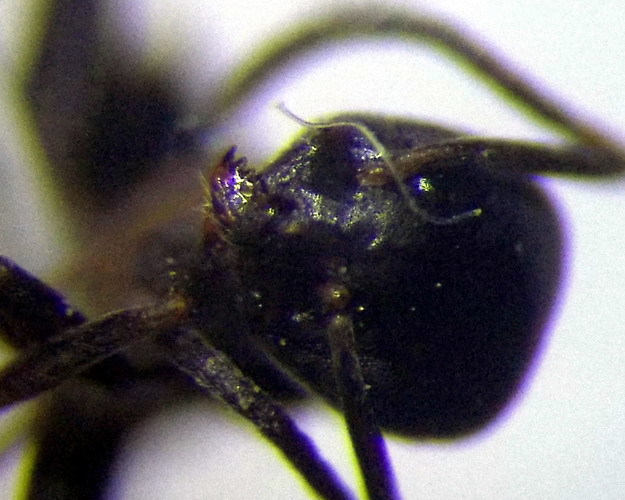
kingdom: Animalia
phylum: Arthropoda
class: Insecta
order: Hymenoptera
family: Formicidae
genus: Tapinoma
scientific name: Tapinoma erraticum
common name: Erratic ant
